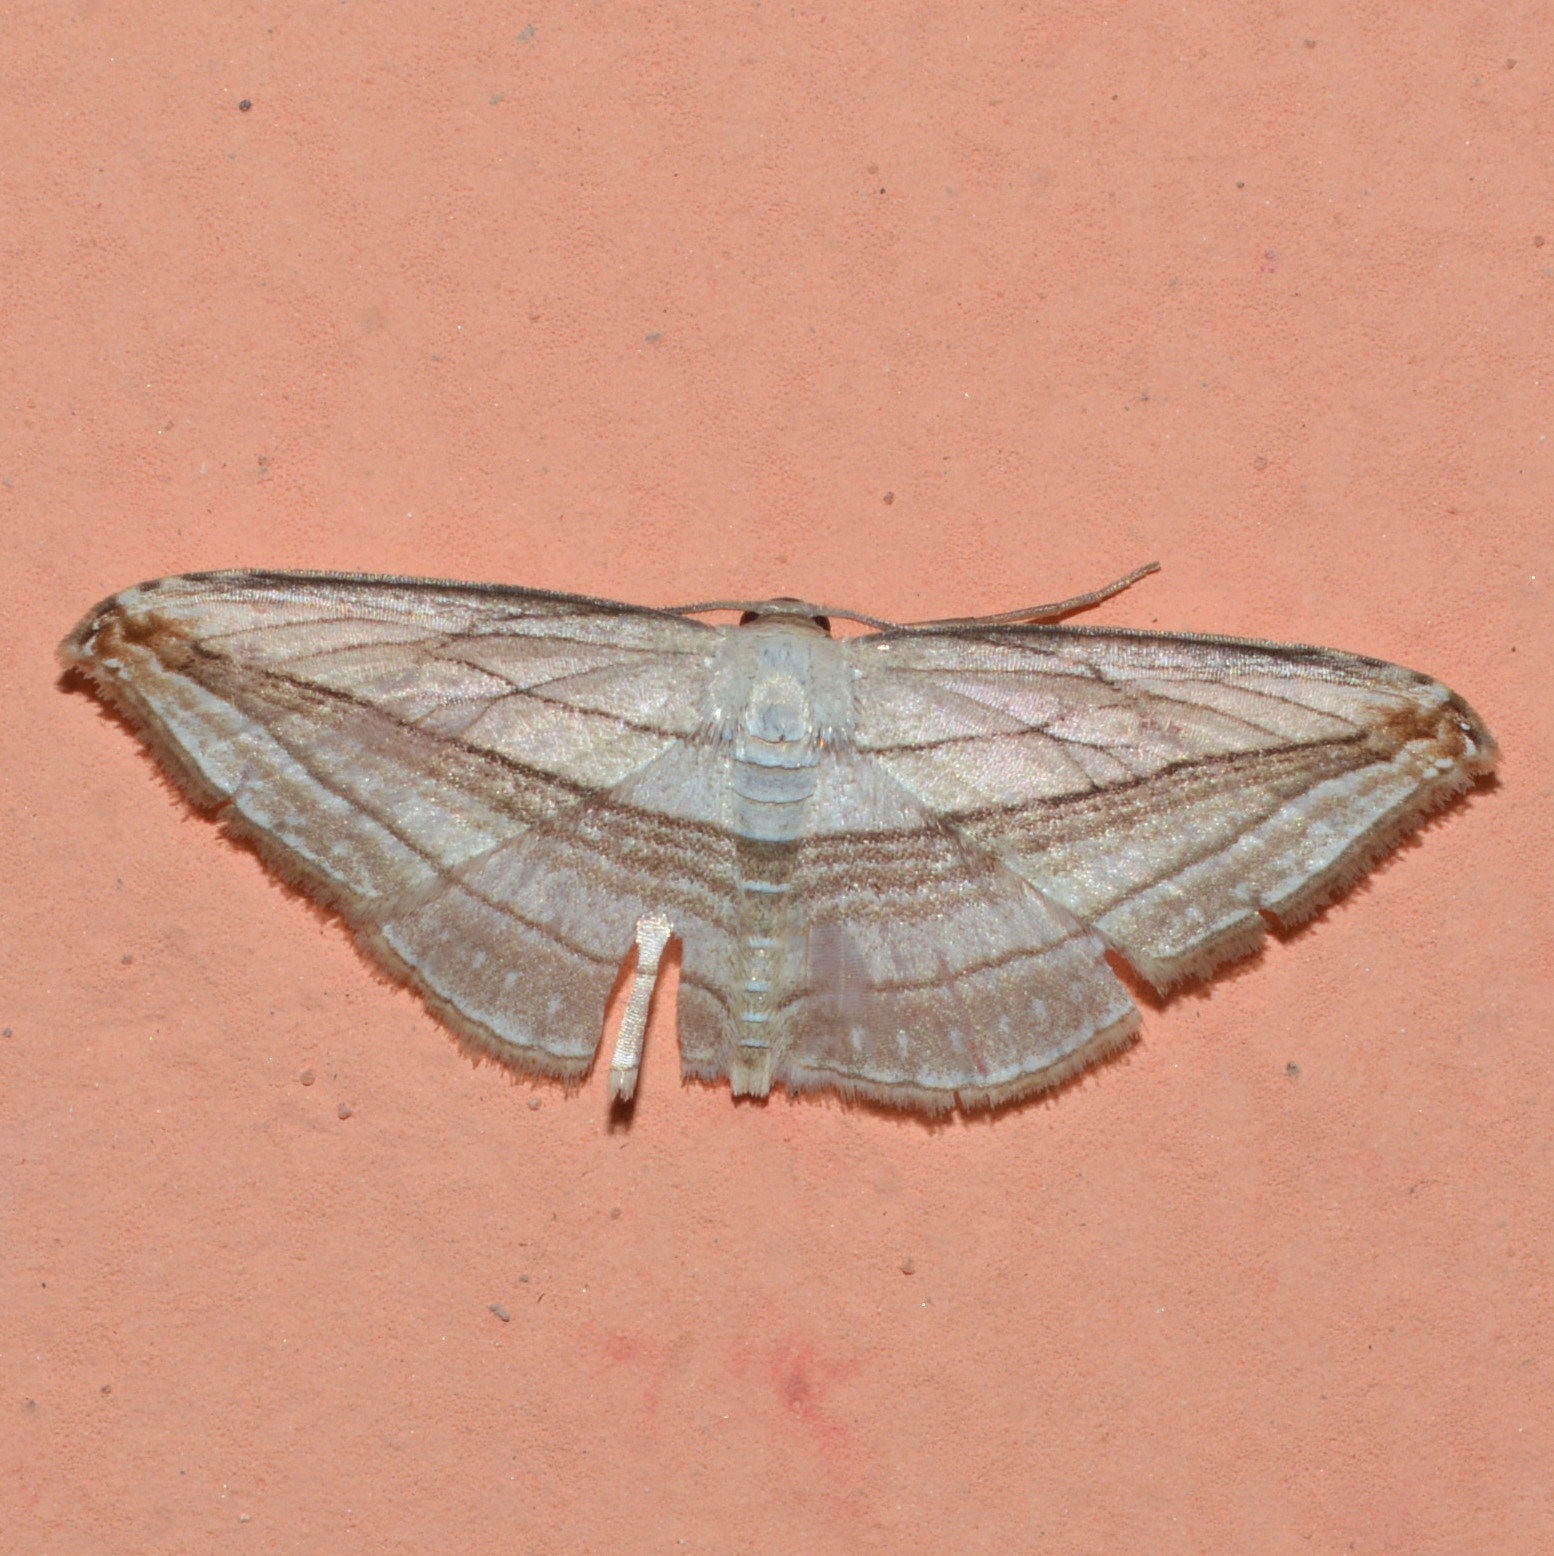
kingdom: Animalia
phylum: Arthropoda
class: Insecta
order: Lepidoptera
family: Geometridae
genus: Arcobara
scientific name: Arcobara tergeminaria
